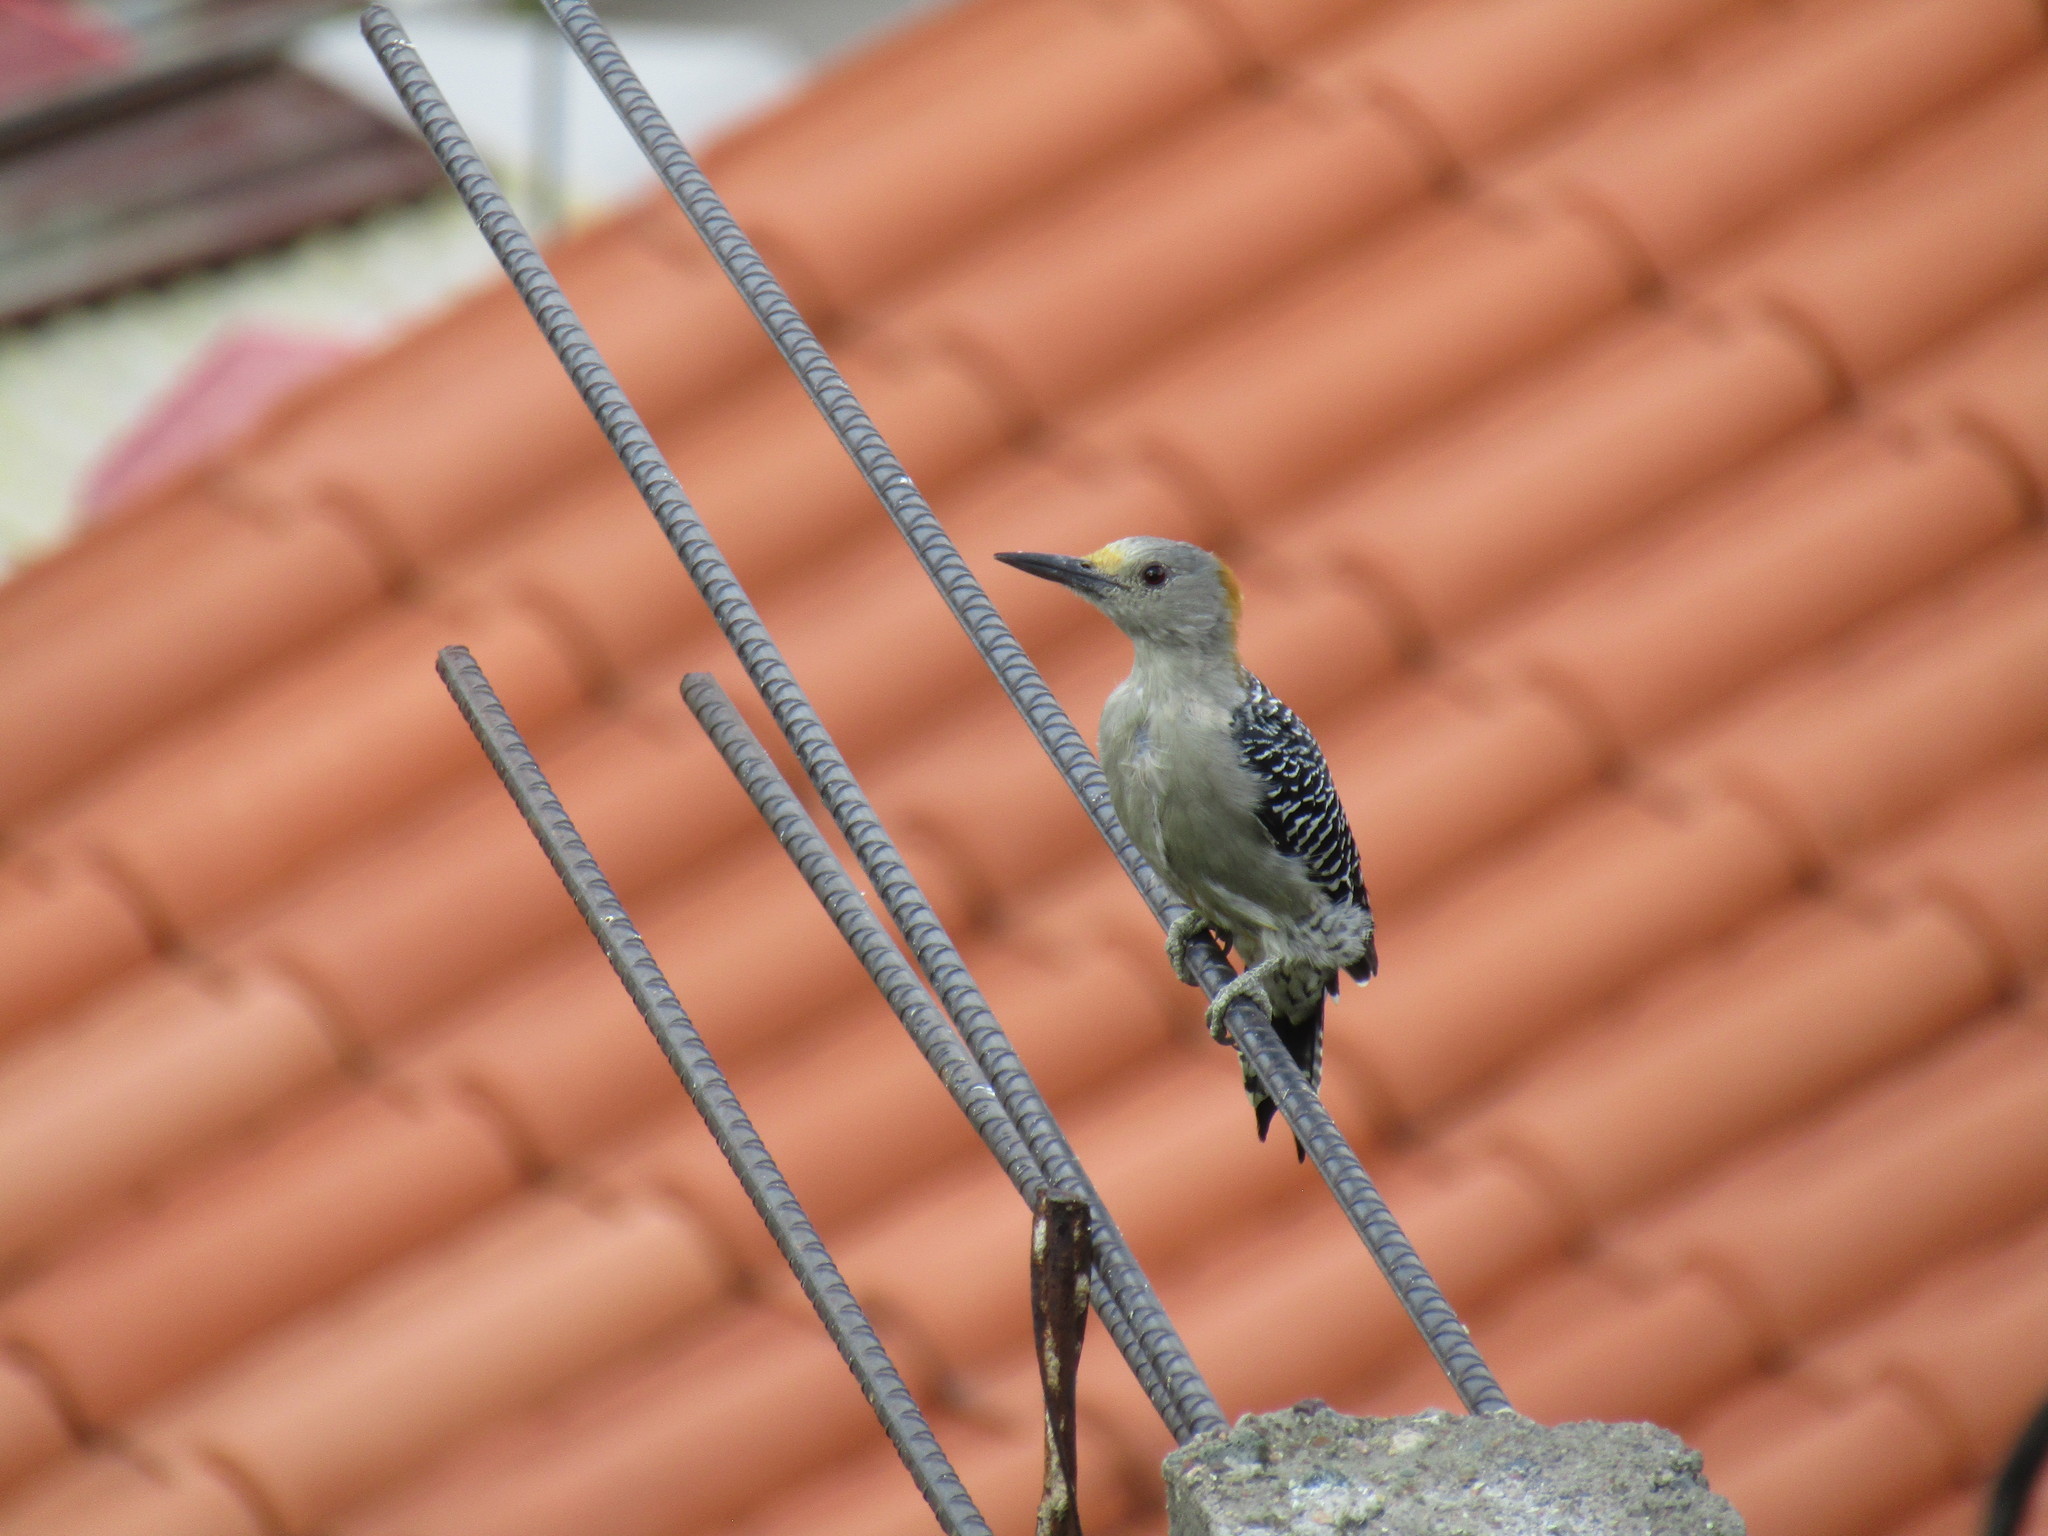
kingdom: Animalia
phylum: Chordata
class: Aves
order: Piciformes
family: Picidae
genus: Melanerpes
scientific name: Melanerpes aurifrons
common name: Golden-fronted woodpecker
